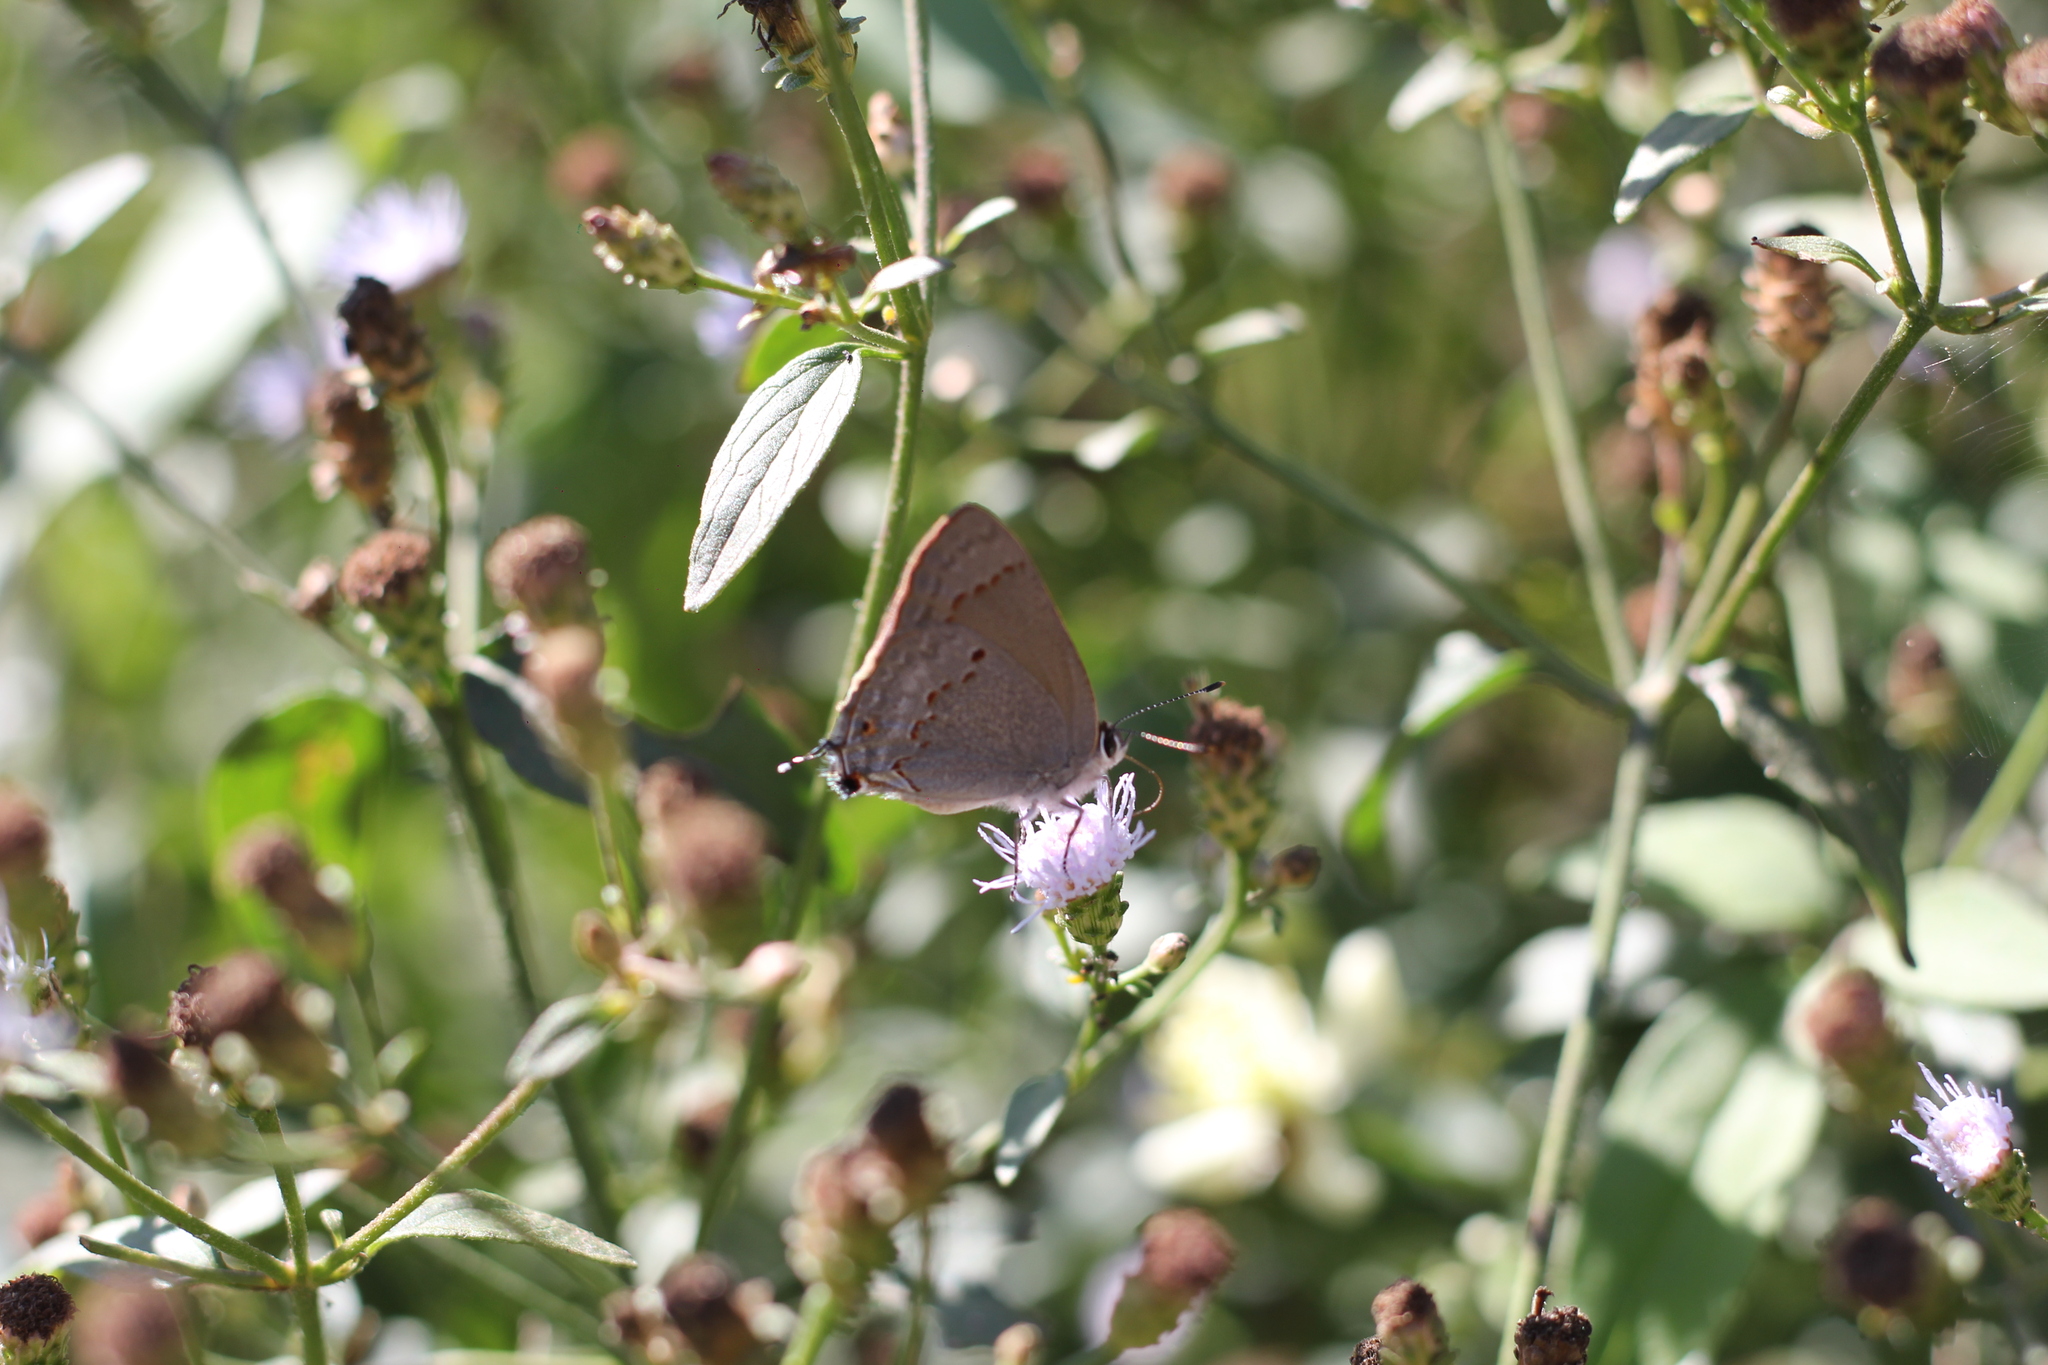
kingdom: Animalia
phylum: Arthropoda
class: Insecta
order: Lepidoptera
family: Lycaenidae
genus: Thecla
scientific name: Thecla rufofusca
